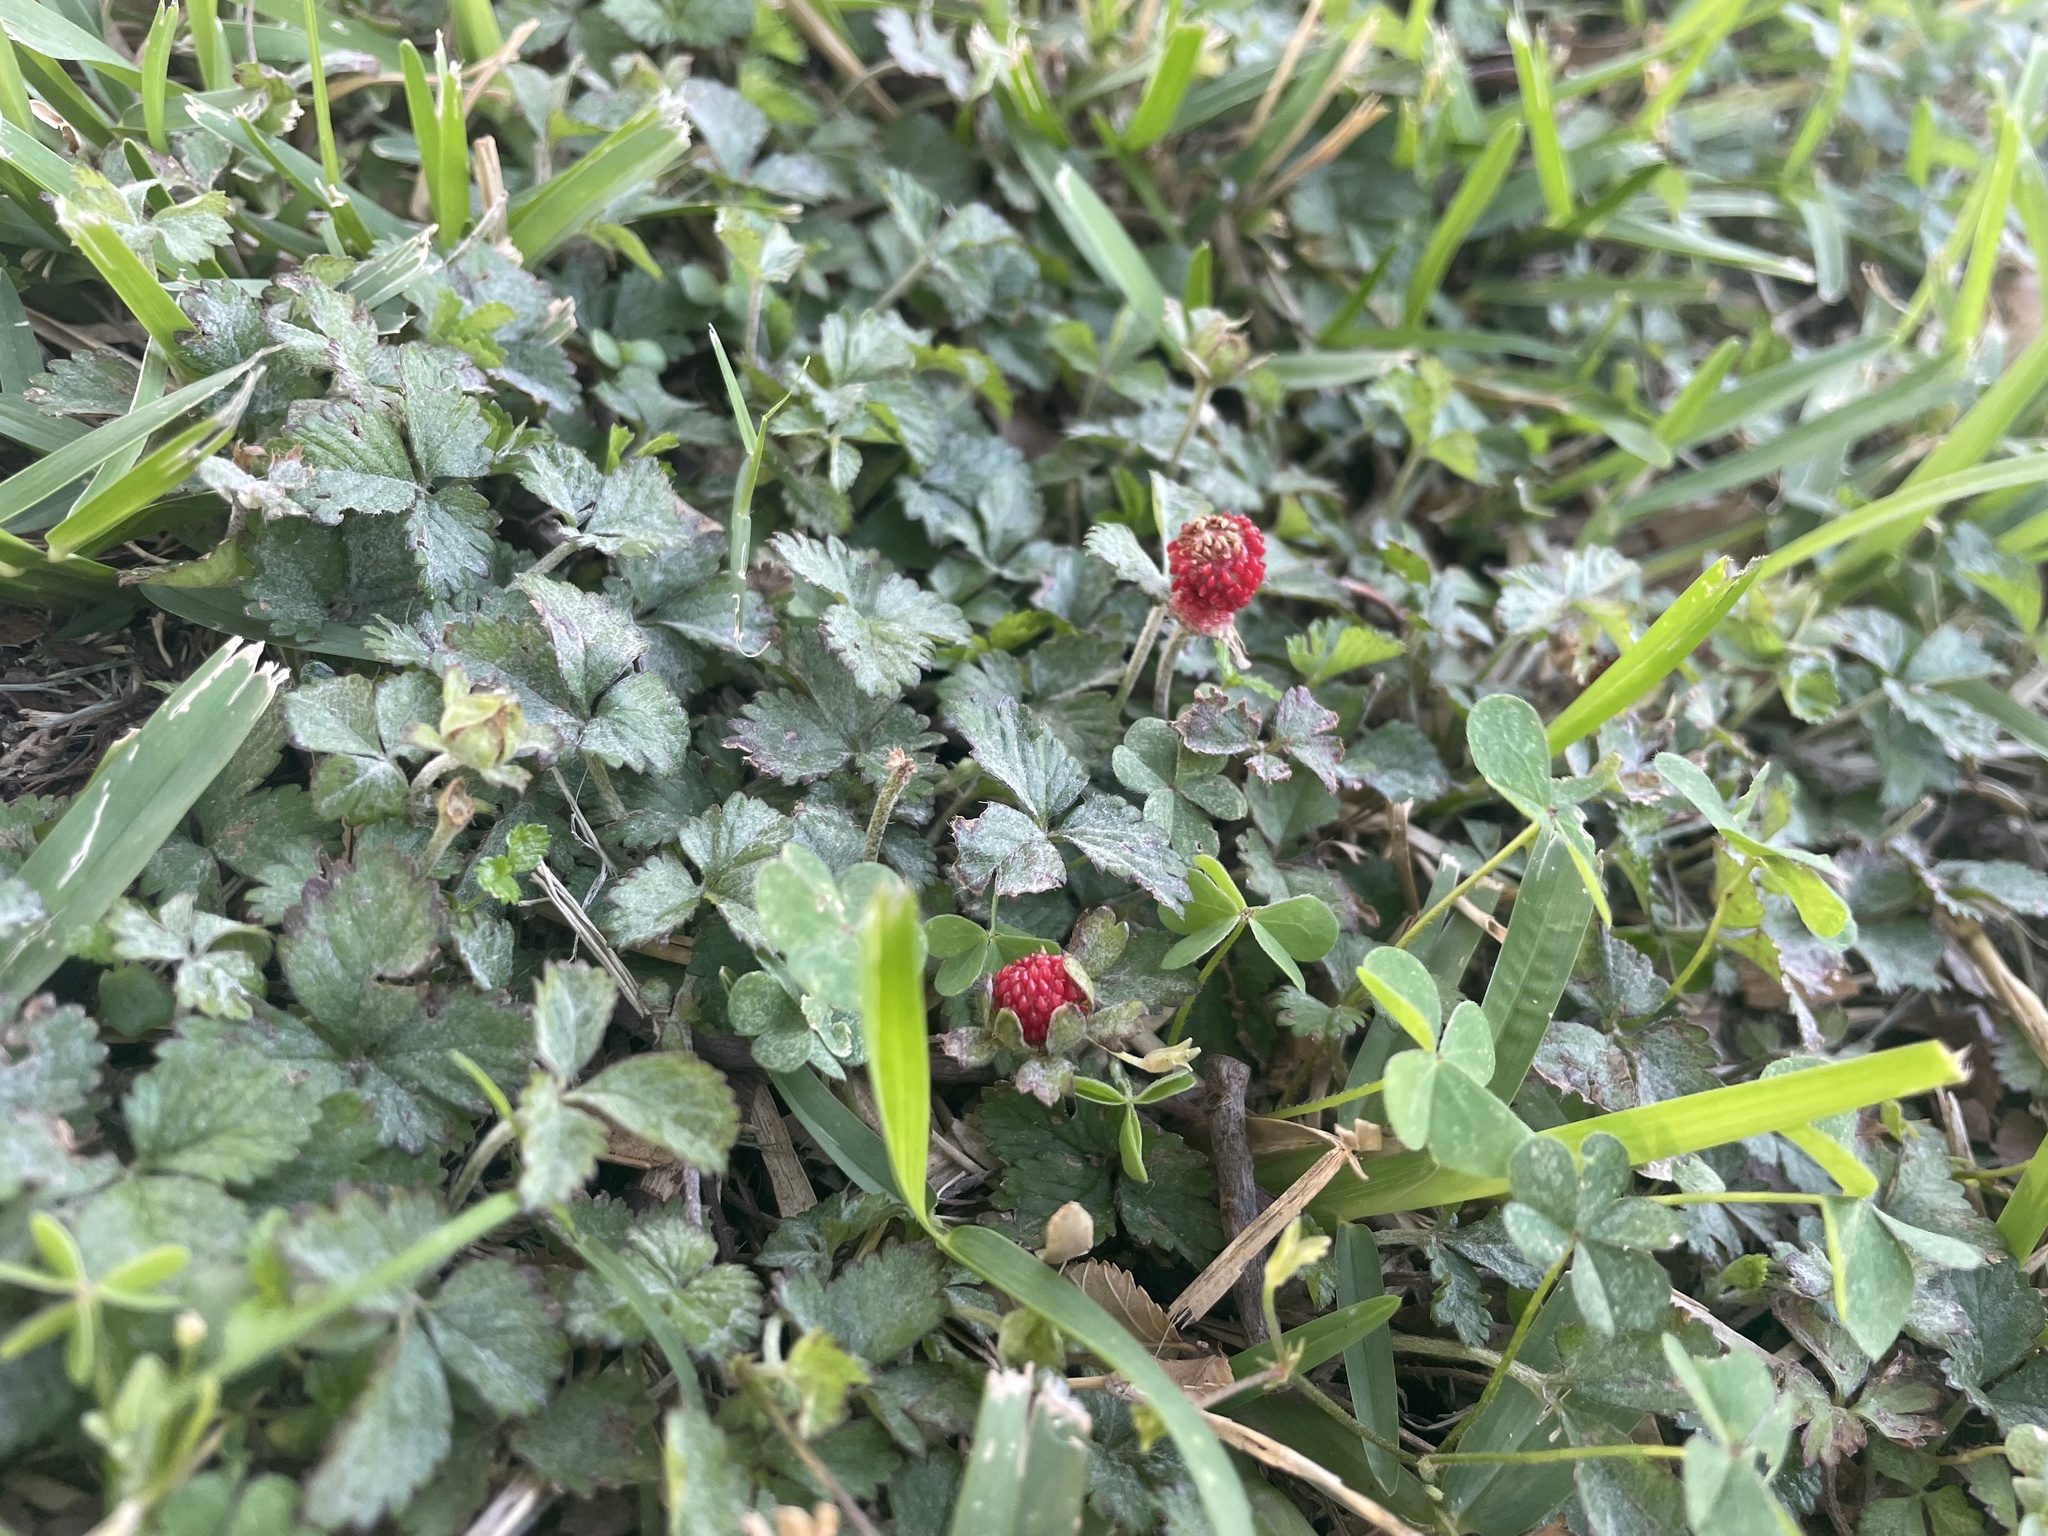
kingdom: Plantae
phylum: Tracheophyta
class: Magnoliopsida
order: Rosales
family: Rosaceae
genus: Potentilla
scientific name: Potentilla indica
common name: Yellow-flowered strawberry
